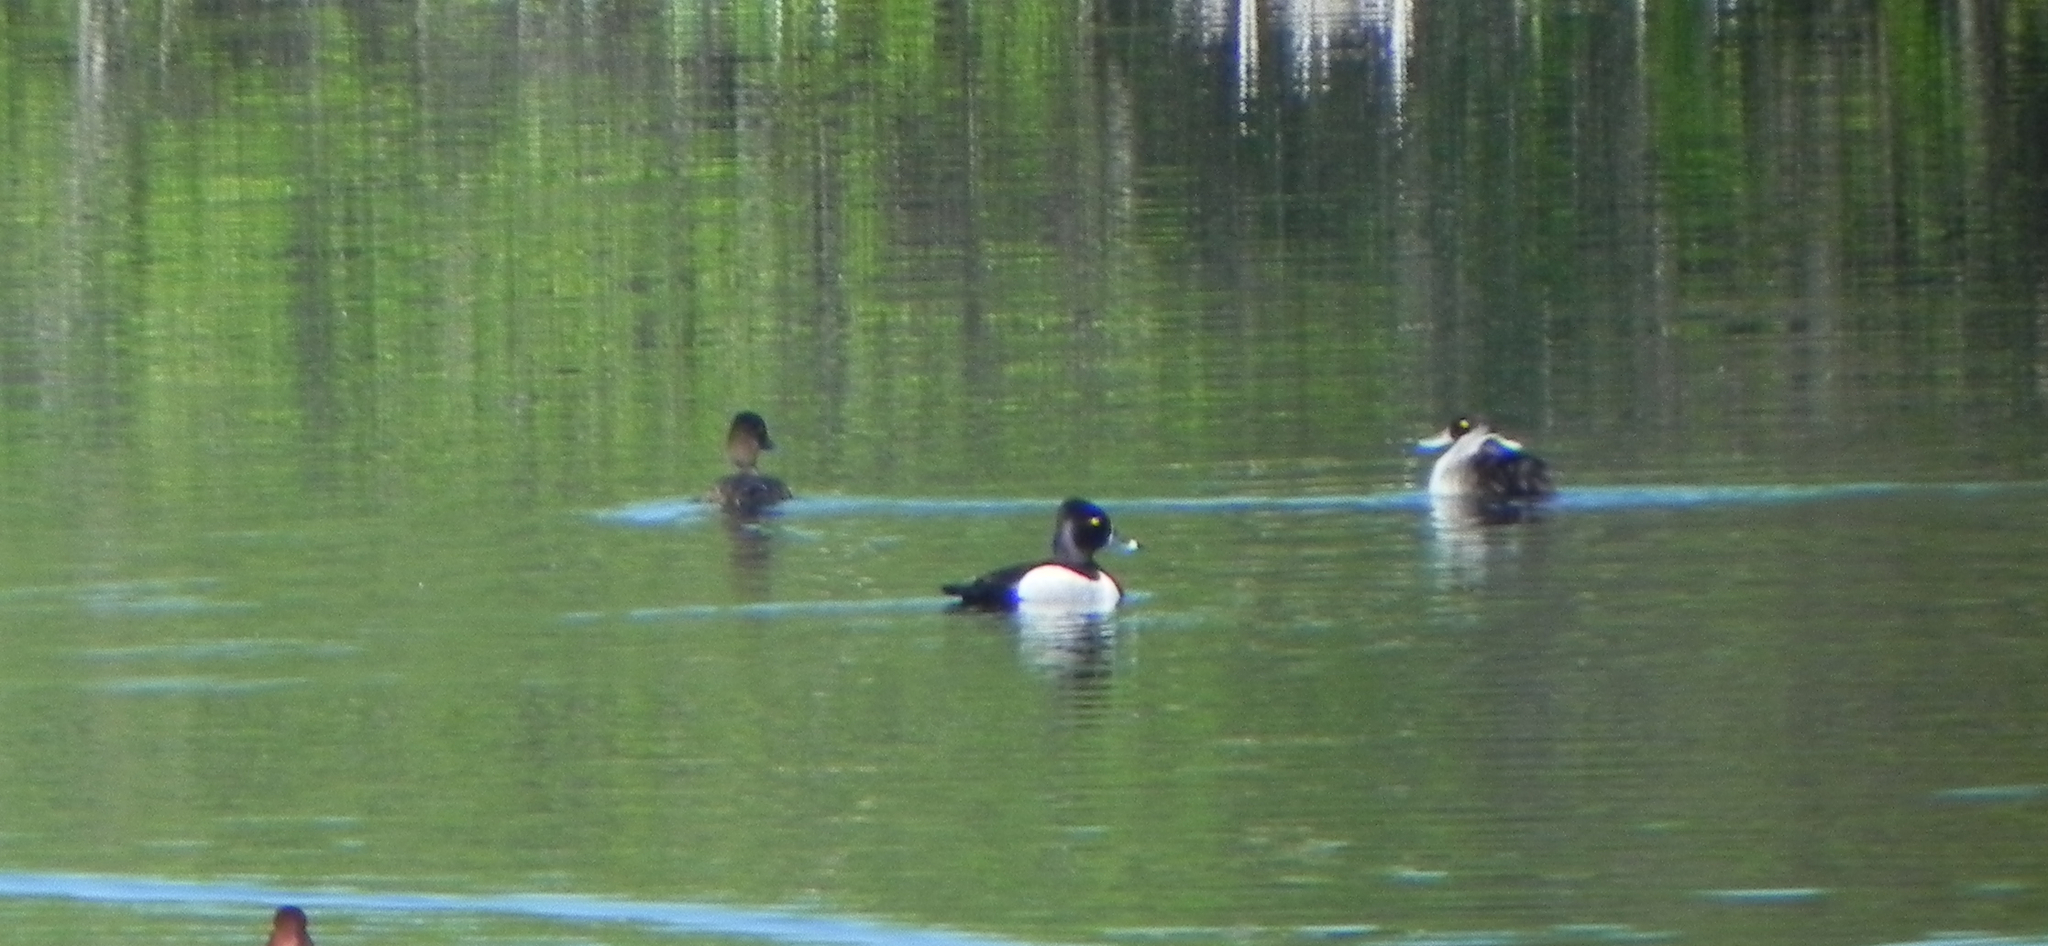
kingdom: Animalia
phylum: Chordata
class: Aves
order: Anseriformes
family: Anatidae
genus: Aythya
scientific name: Aythya collaris
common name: Ring-necked duck
